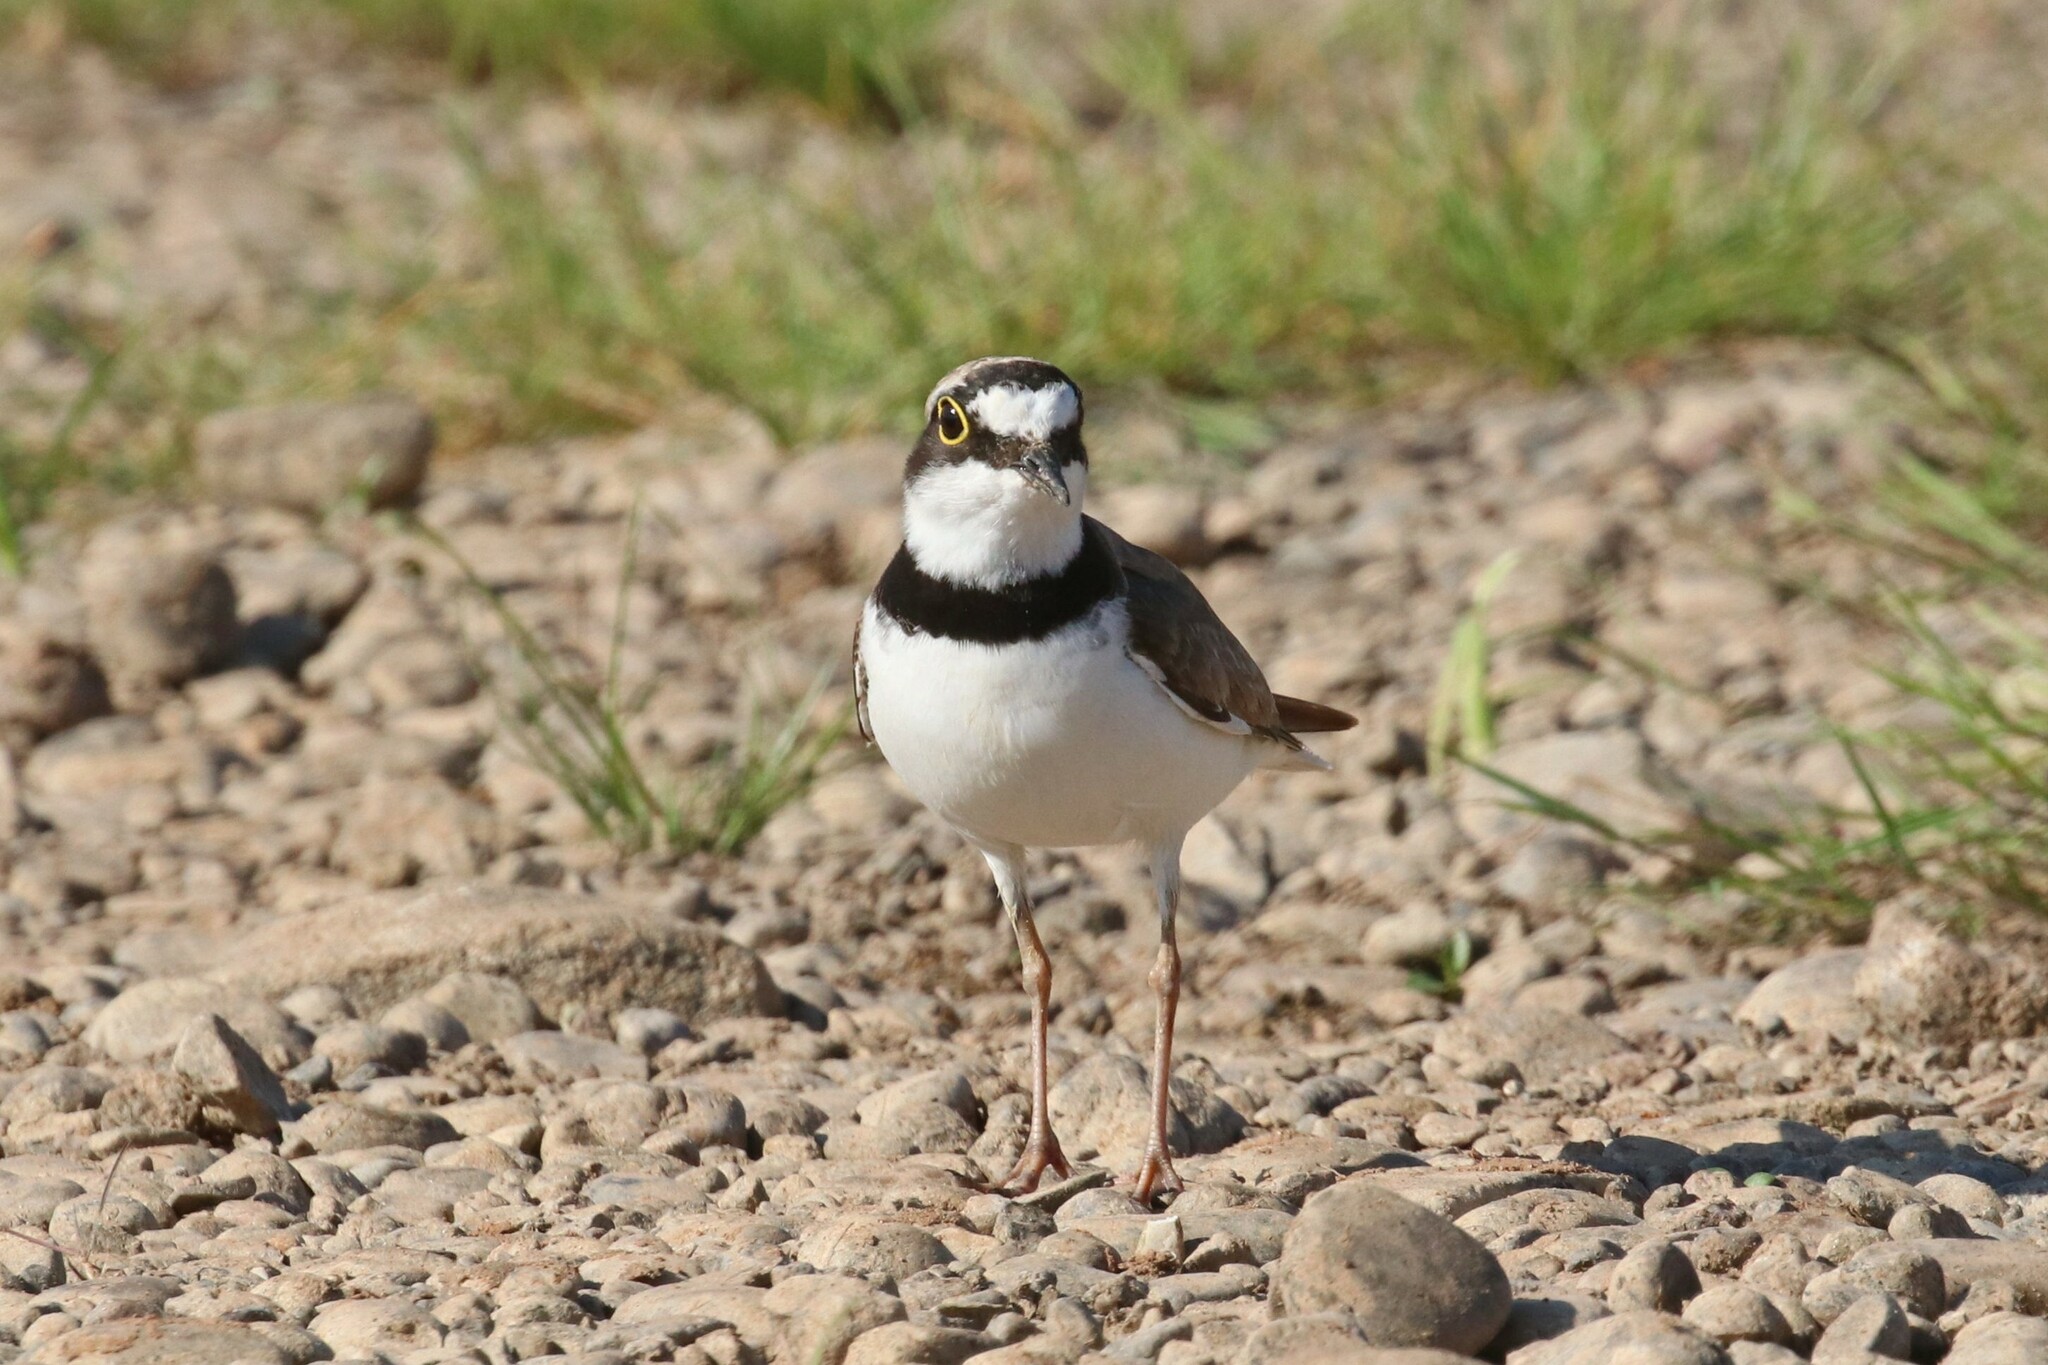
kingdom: Animalia
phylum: Chordata
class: Aves
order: Charadriiformes
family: Charadriidae
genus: Charadrius
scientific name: Charadrius dubius
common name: Little ringed plover
